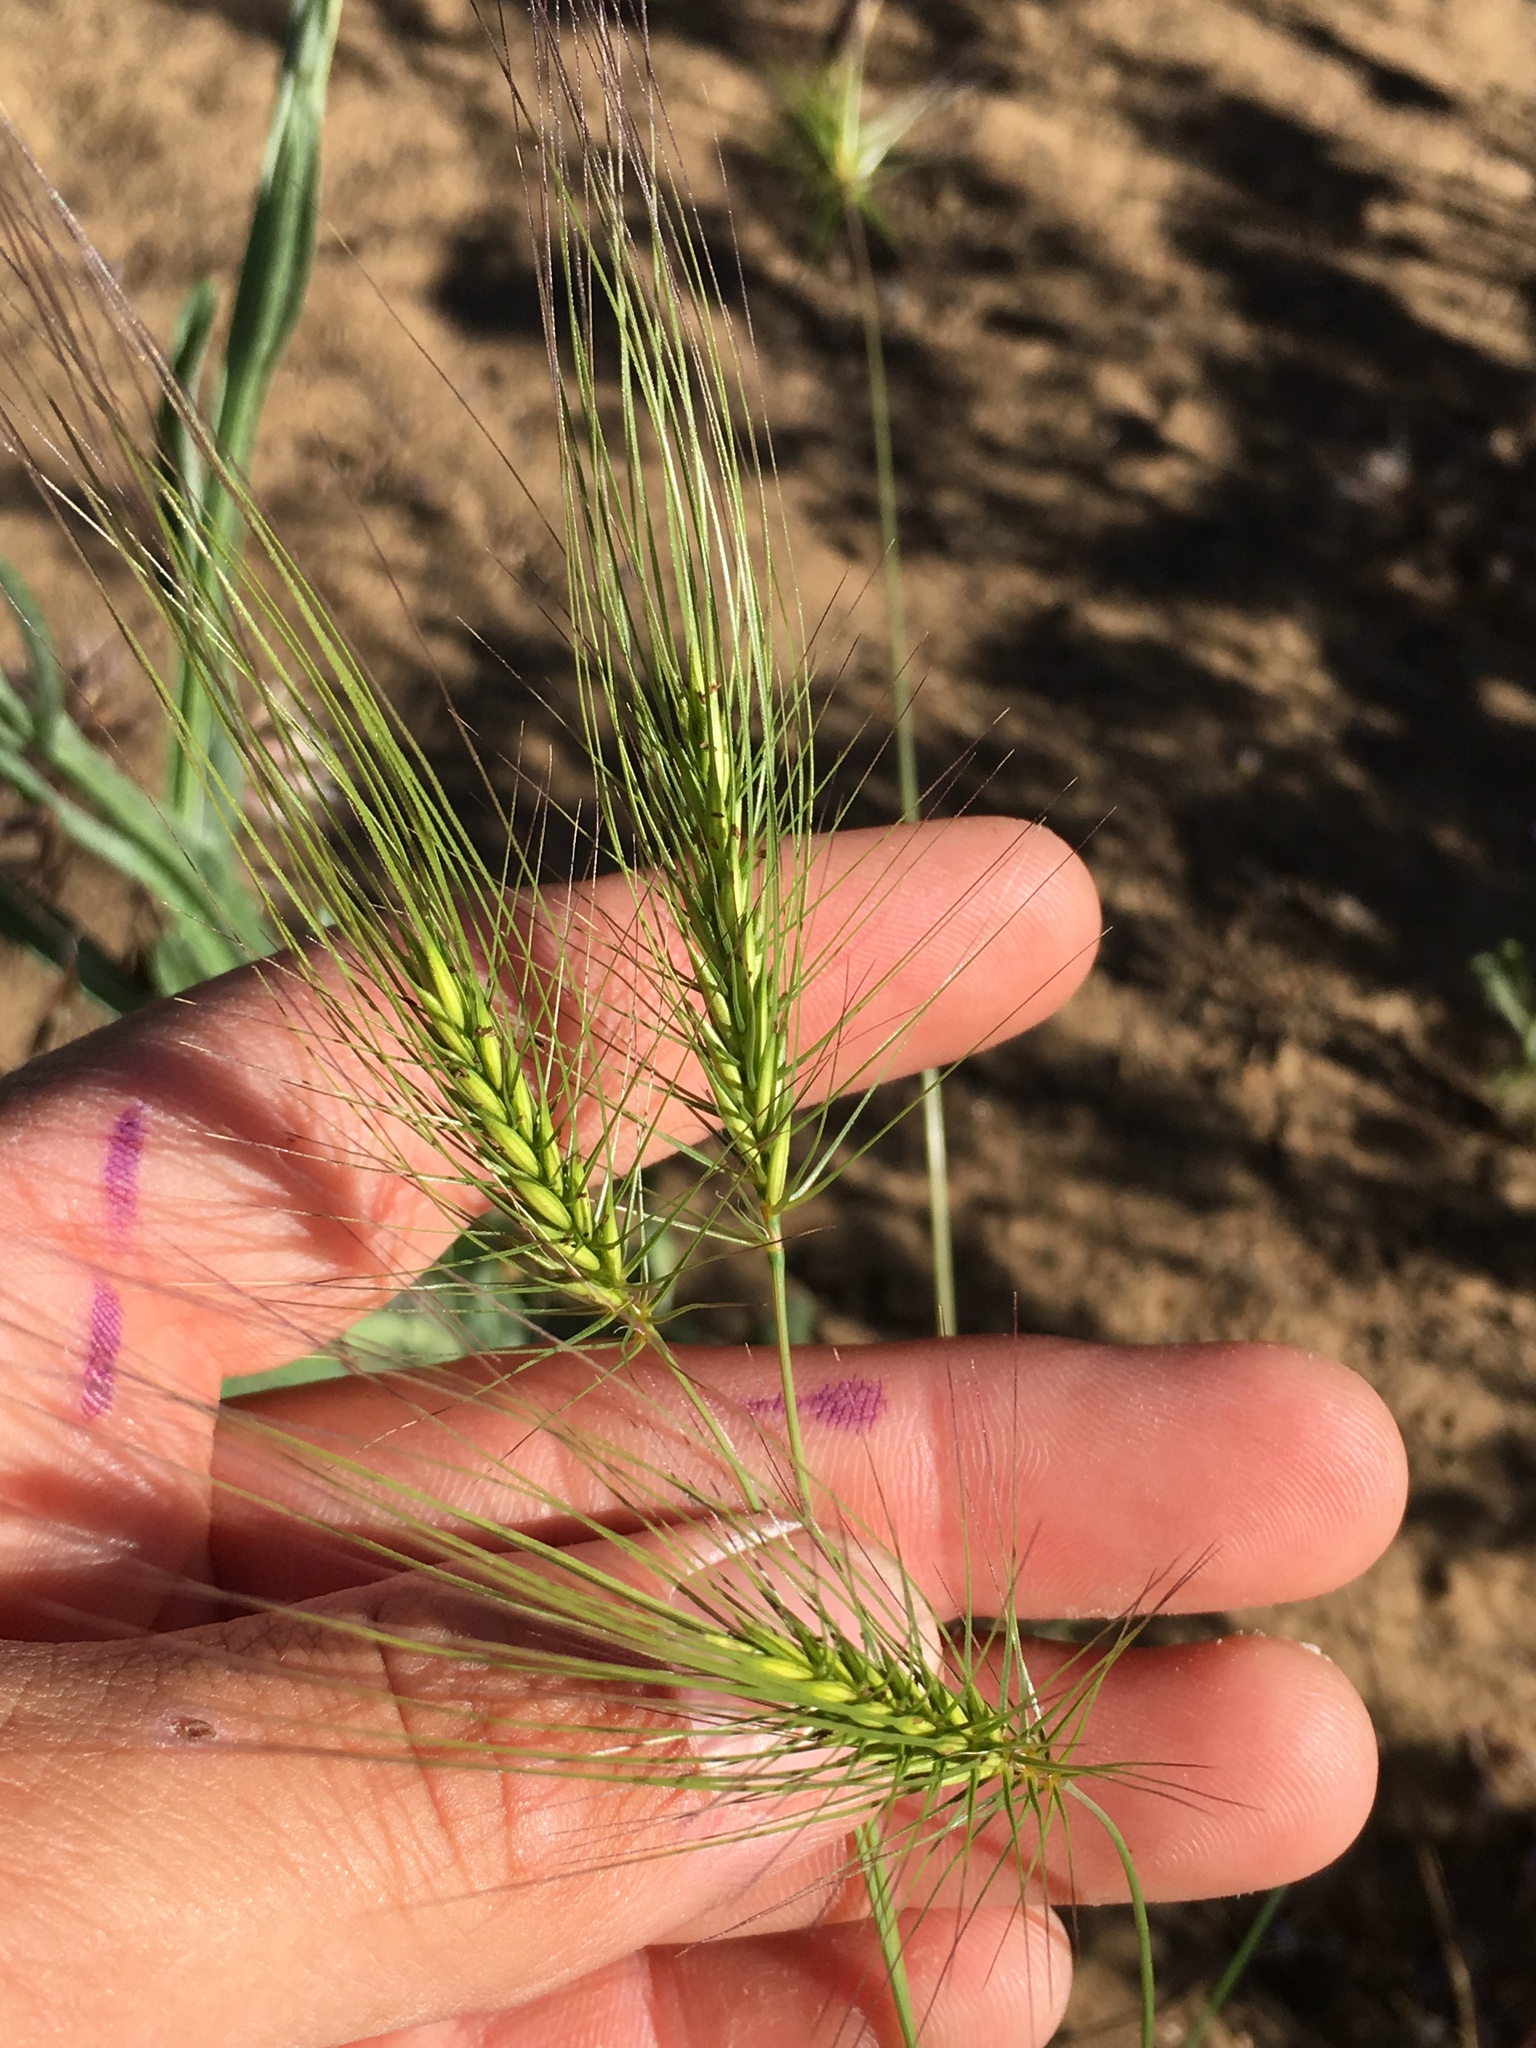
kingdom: Plantae
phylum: Tracheophyta
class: Liliopsida
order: Poales
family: Poaceae
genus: Taeniatherum
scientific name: Taeniatherum caput-medusae
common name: Medusahead
